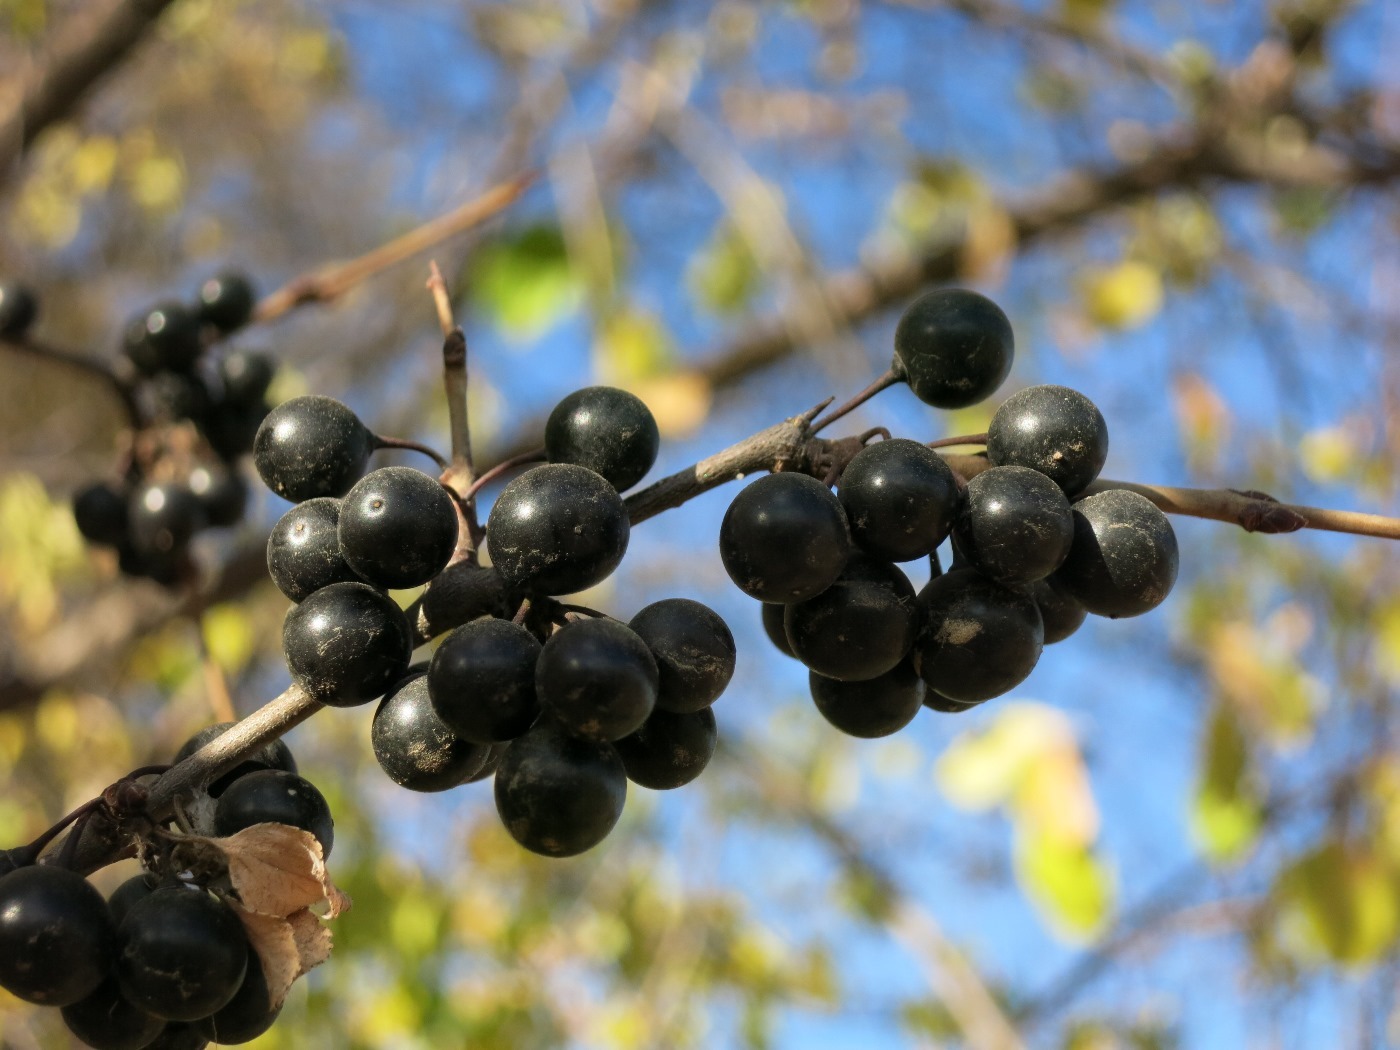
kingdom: Plantae
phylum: Tracheophyta
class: Magnoliopsida
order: Rosales
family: Rhamnaceae
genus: Rhamnus
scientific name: Rhamnus cathartica
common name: Common buckthorn
